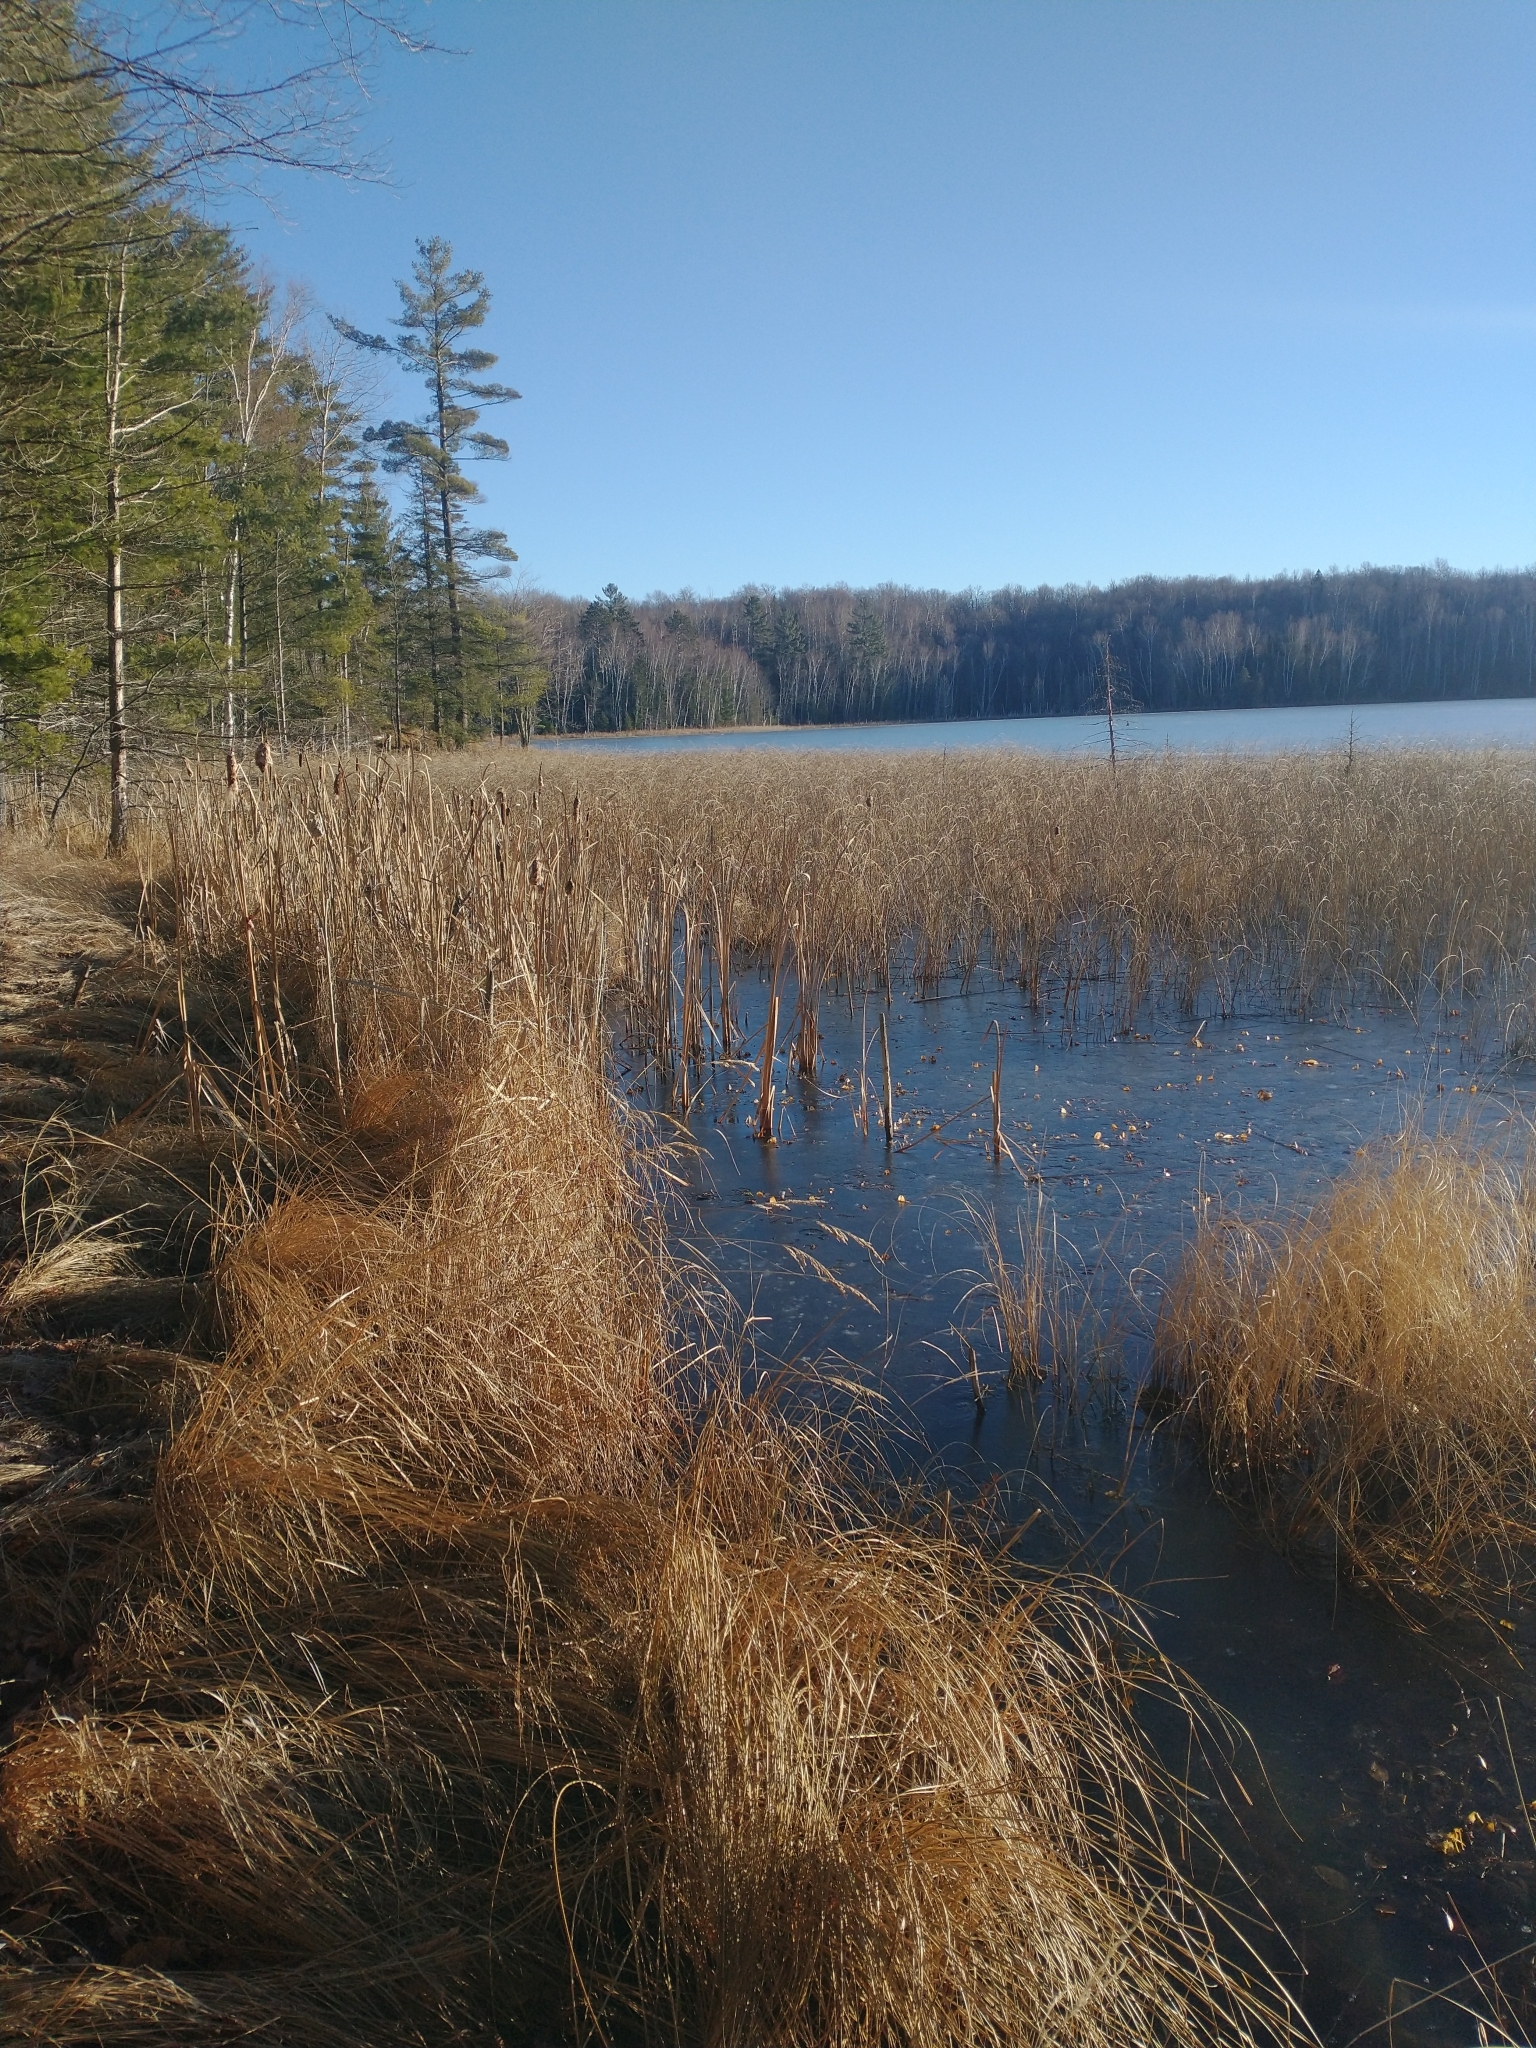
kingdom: Plantae
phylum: Tracheophyta
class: Pinopsida
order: Pinales
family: Pinaceae
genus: Pinus
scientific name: Pinus strobus
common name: Weymouth pine
